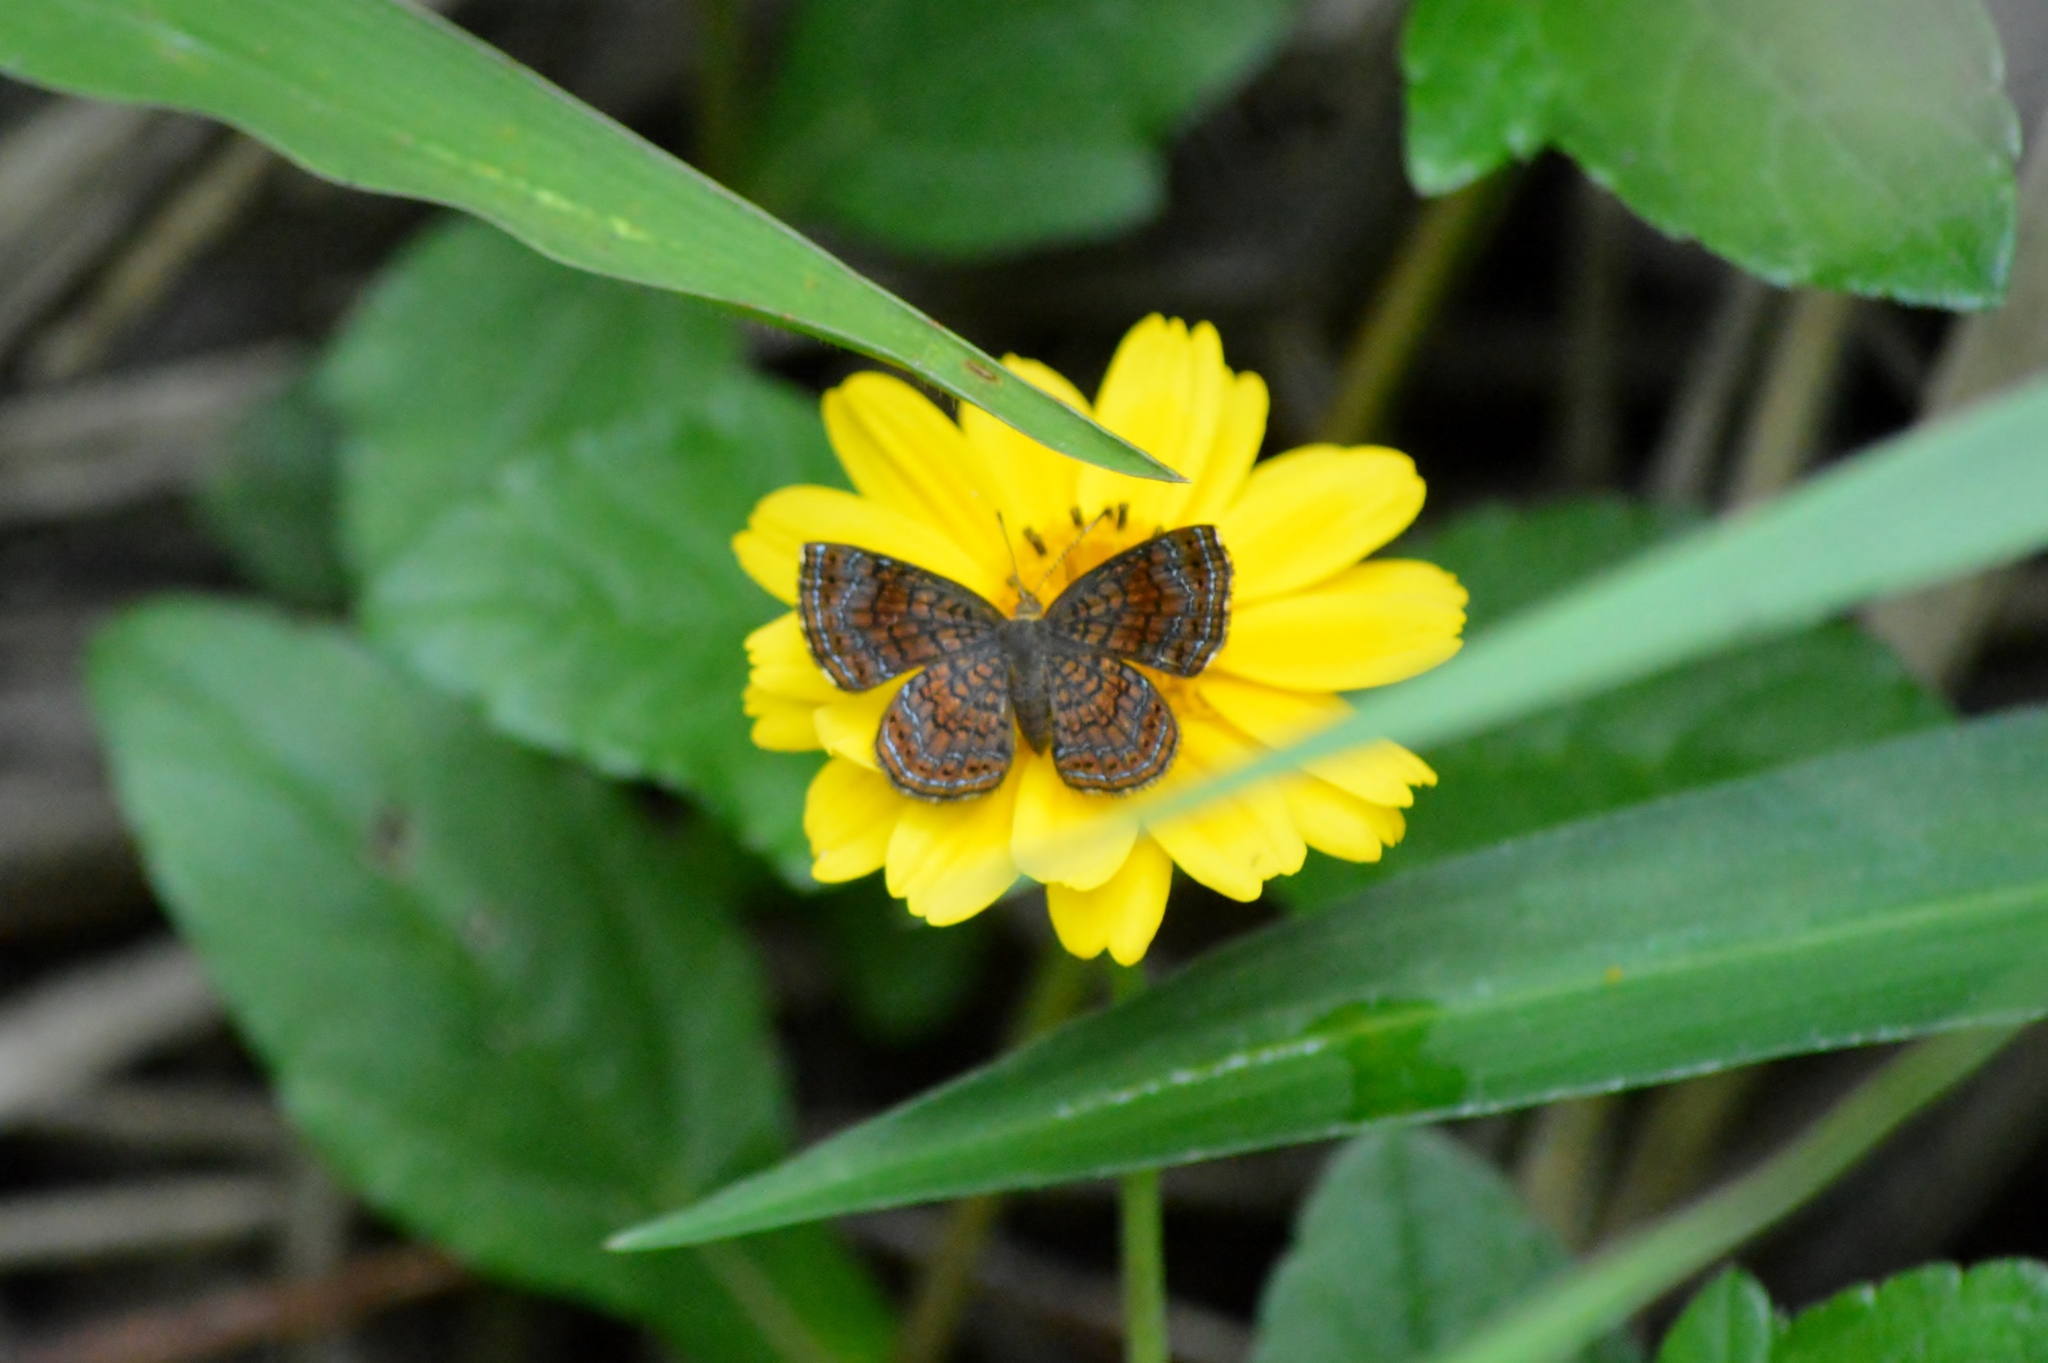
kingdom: Animalia
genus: Calephelis
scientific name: Calephelis aymaran
